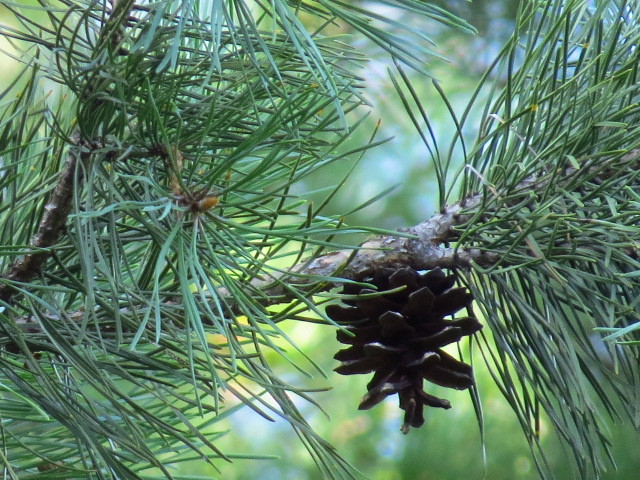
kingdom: Plantae
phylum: Tracheophyta
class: Pinopsida
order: Pinales
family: Pinaceae
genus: Pinus
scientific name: Pinus sylvestris
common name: Scots pine
